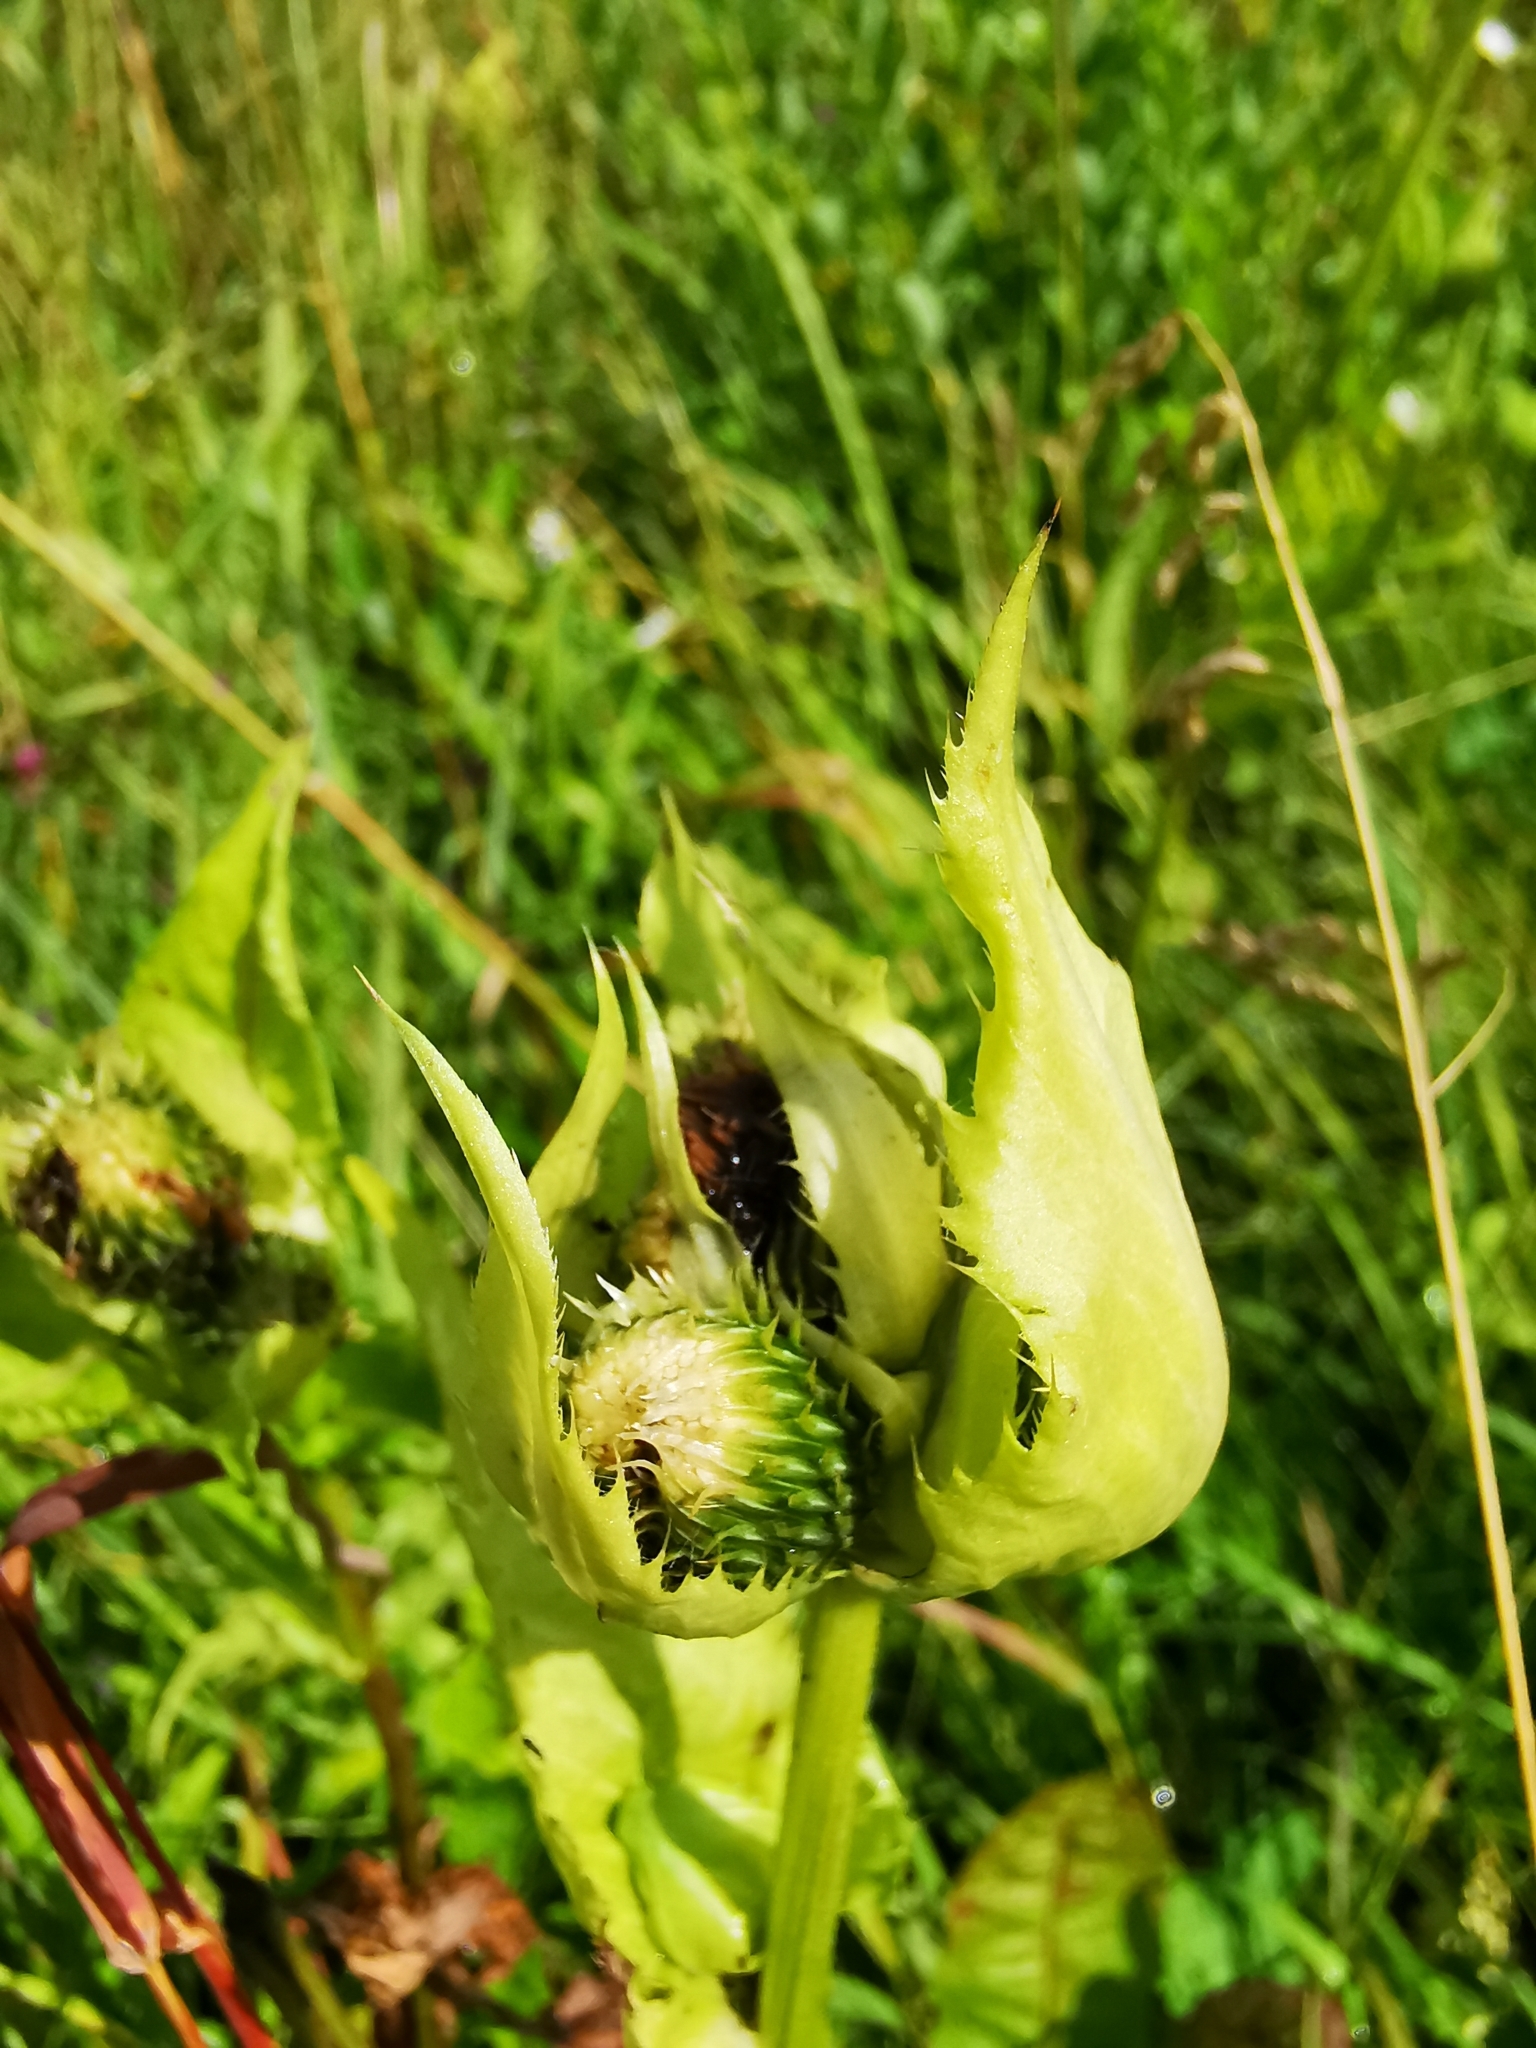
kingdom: Plantae
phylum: Tracheophyta
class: Magnoliopsida
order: Asterales
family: Asteraceae
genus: Cirsium
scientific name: Cirsium oleraceum
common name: Cabbage thistle
